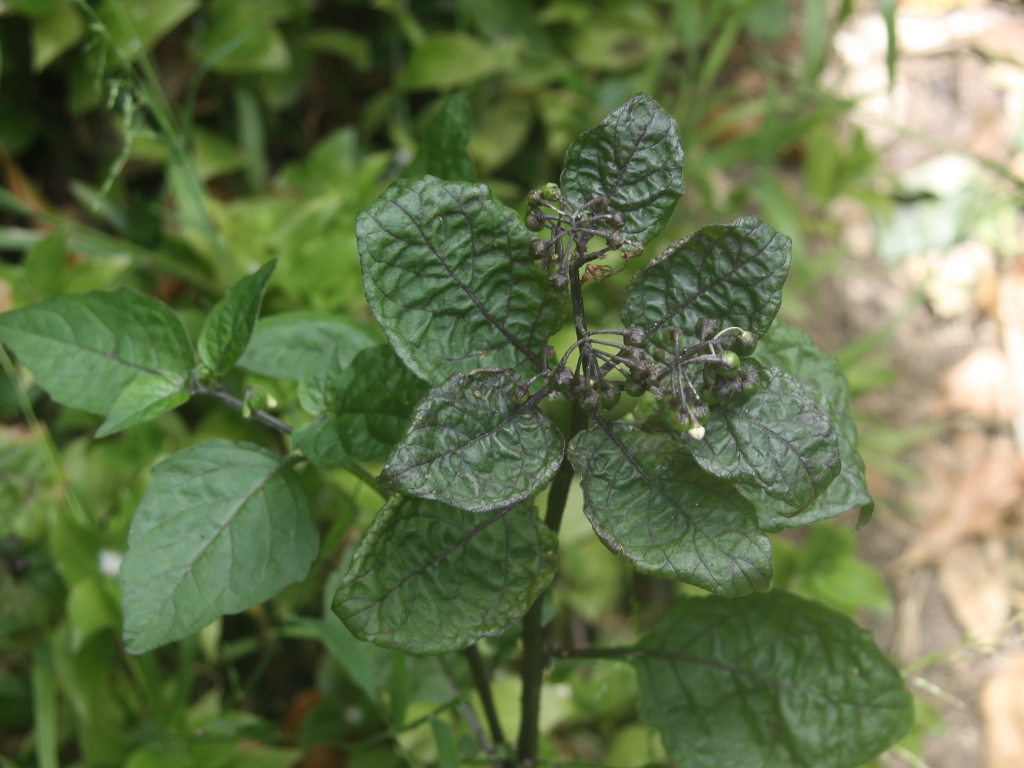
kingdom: Plantae
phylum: Tracheophyta
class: Magnoliopsida
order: Solanales
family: Solanaceae
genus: Solanum
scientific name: Solanum nigrum
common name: Black nightshade
